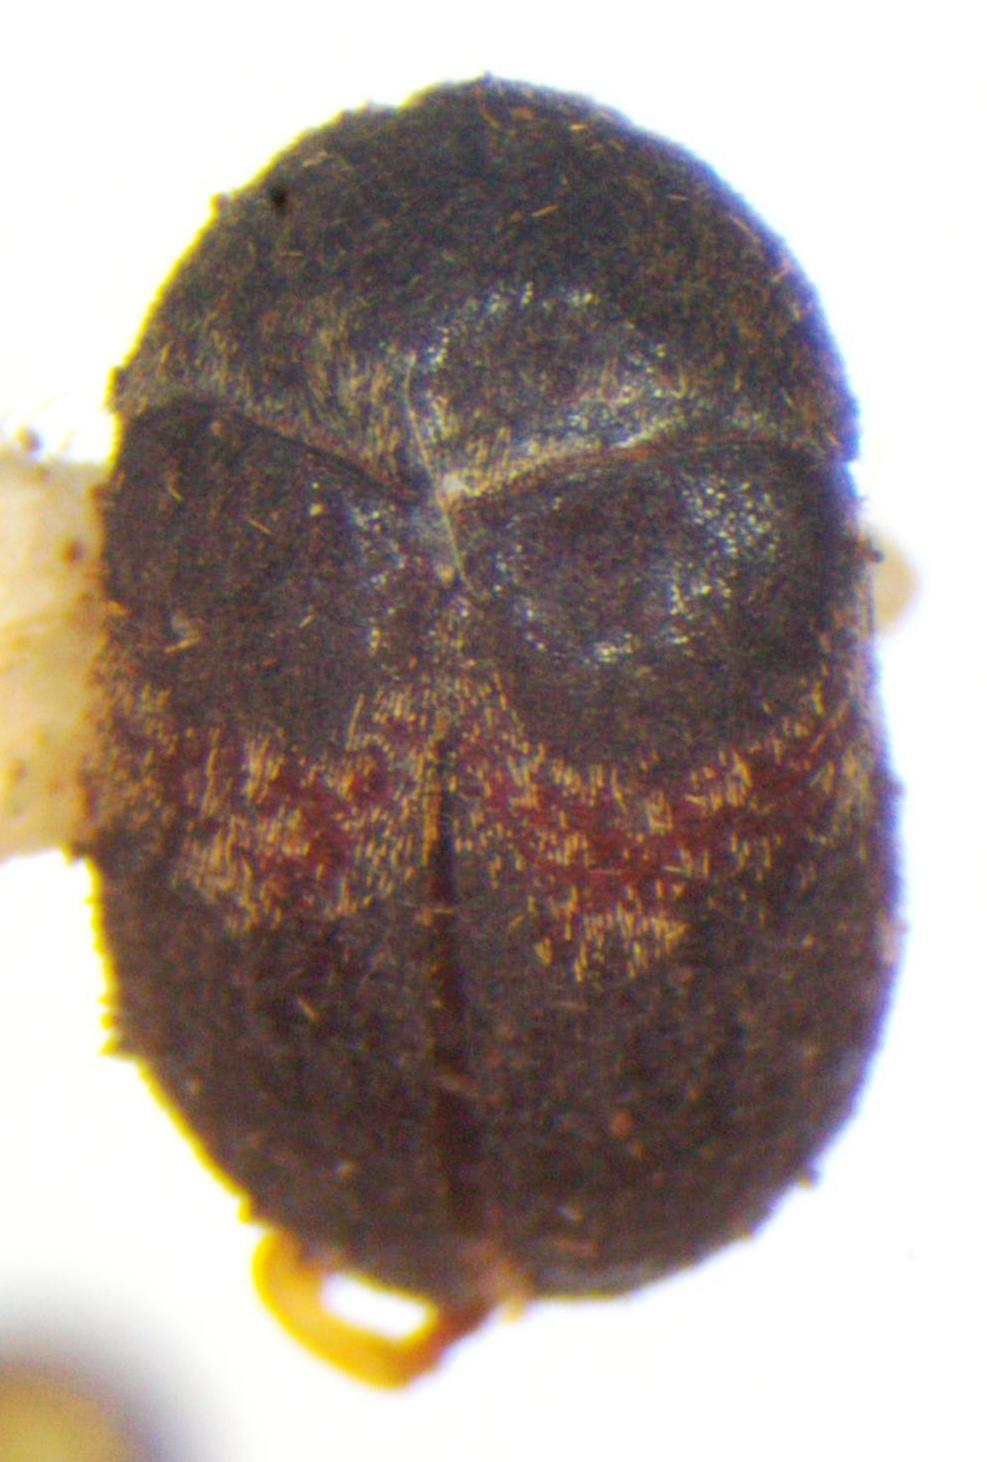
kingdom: Animalia
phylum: Arthropoda
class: Insecta
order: Coleoptera
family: Dermestidae
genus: Attagenus
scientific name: Attagenus fasciatus
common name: Wardrobe beetle
